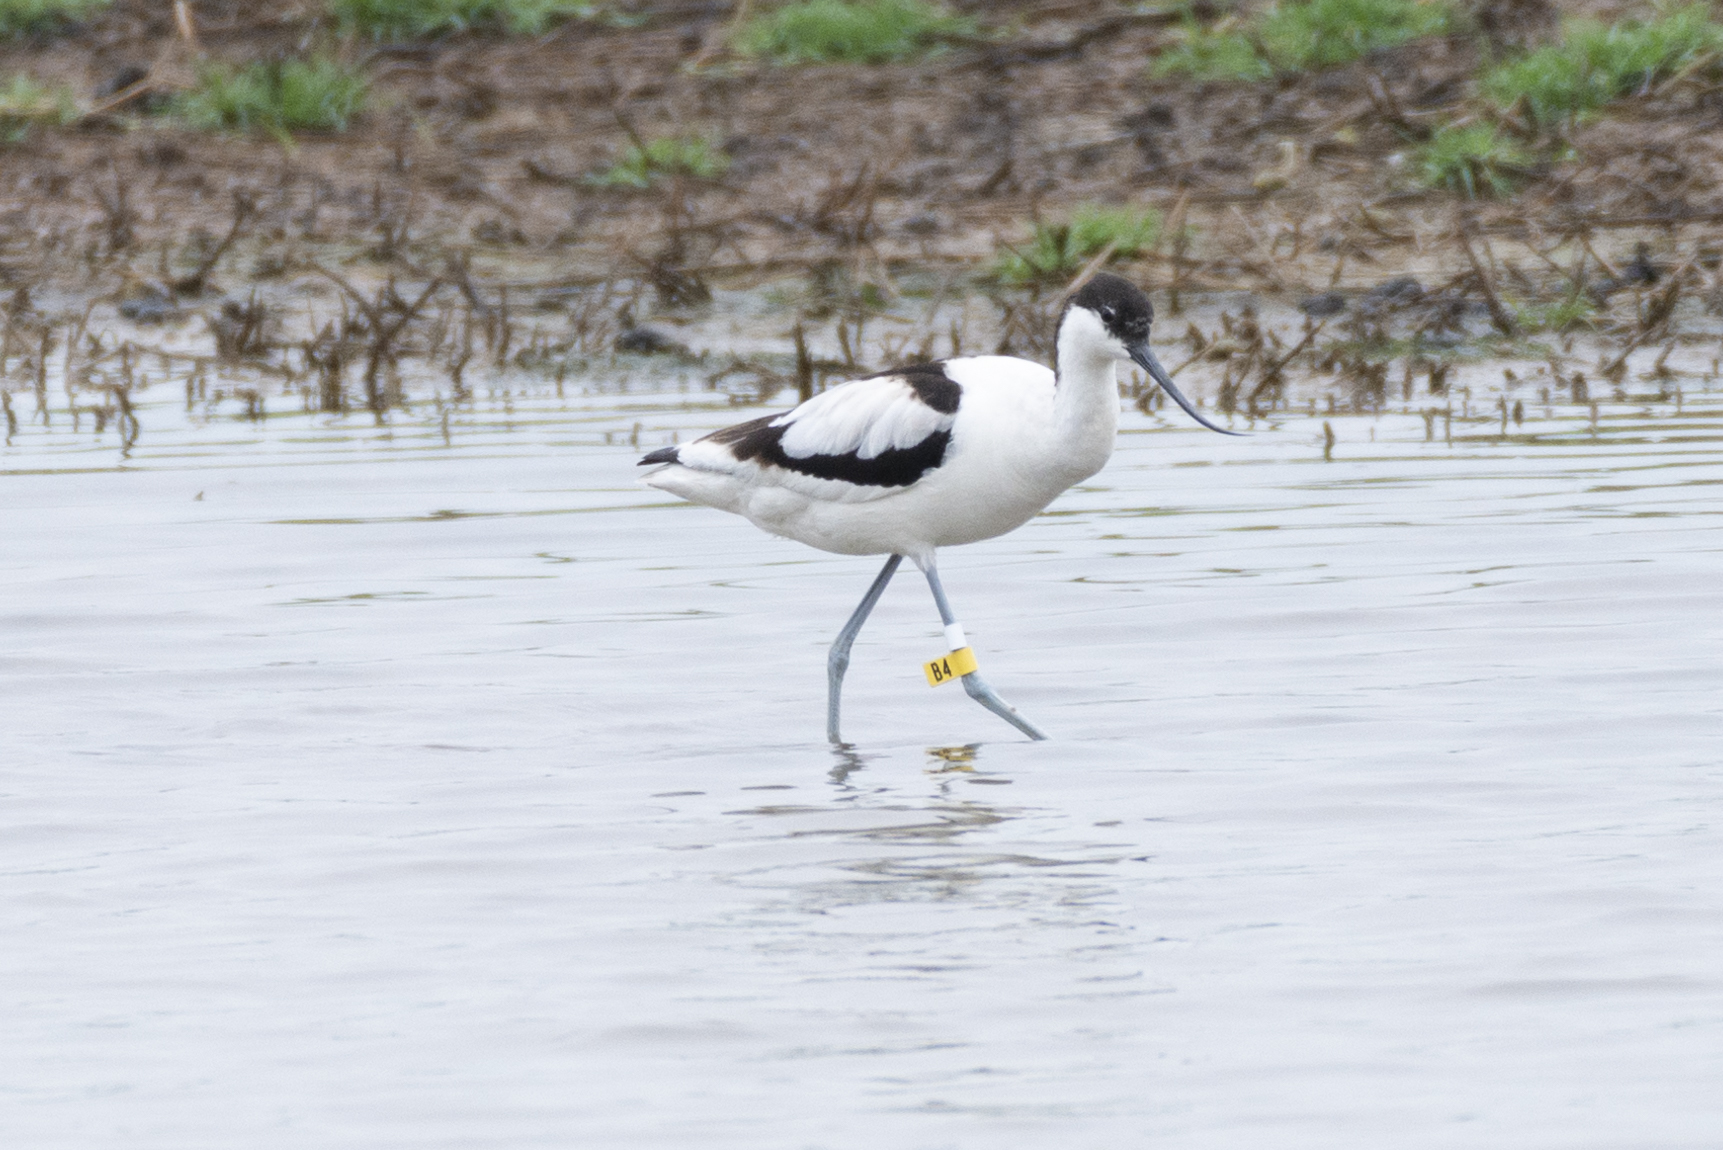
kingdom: Animalia
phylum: Chordata
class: Aves
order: Charadriiformes
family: Recurvirostridae
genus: Recurvirostra
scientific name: Recurvirostra avosetta
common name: Pied avocet
